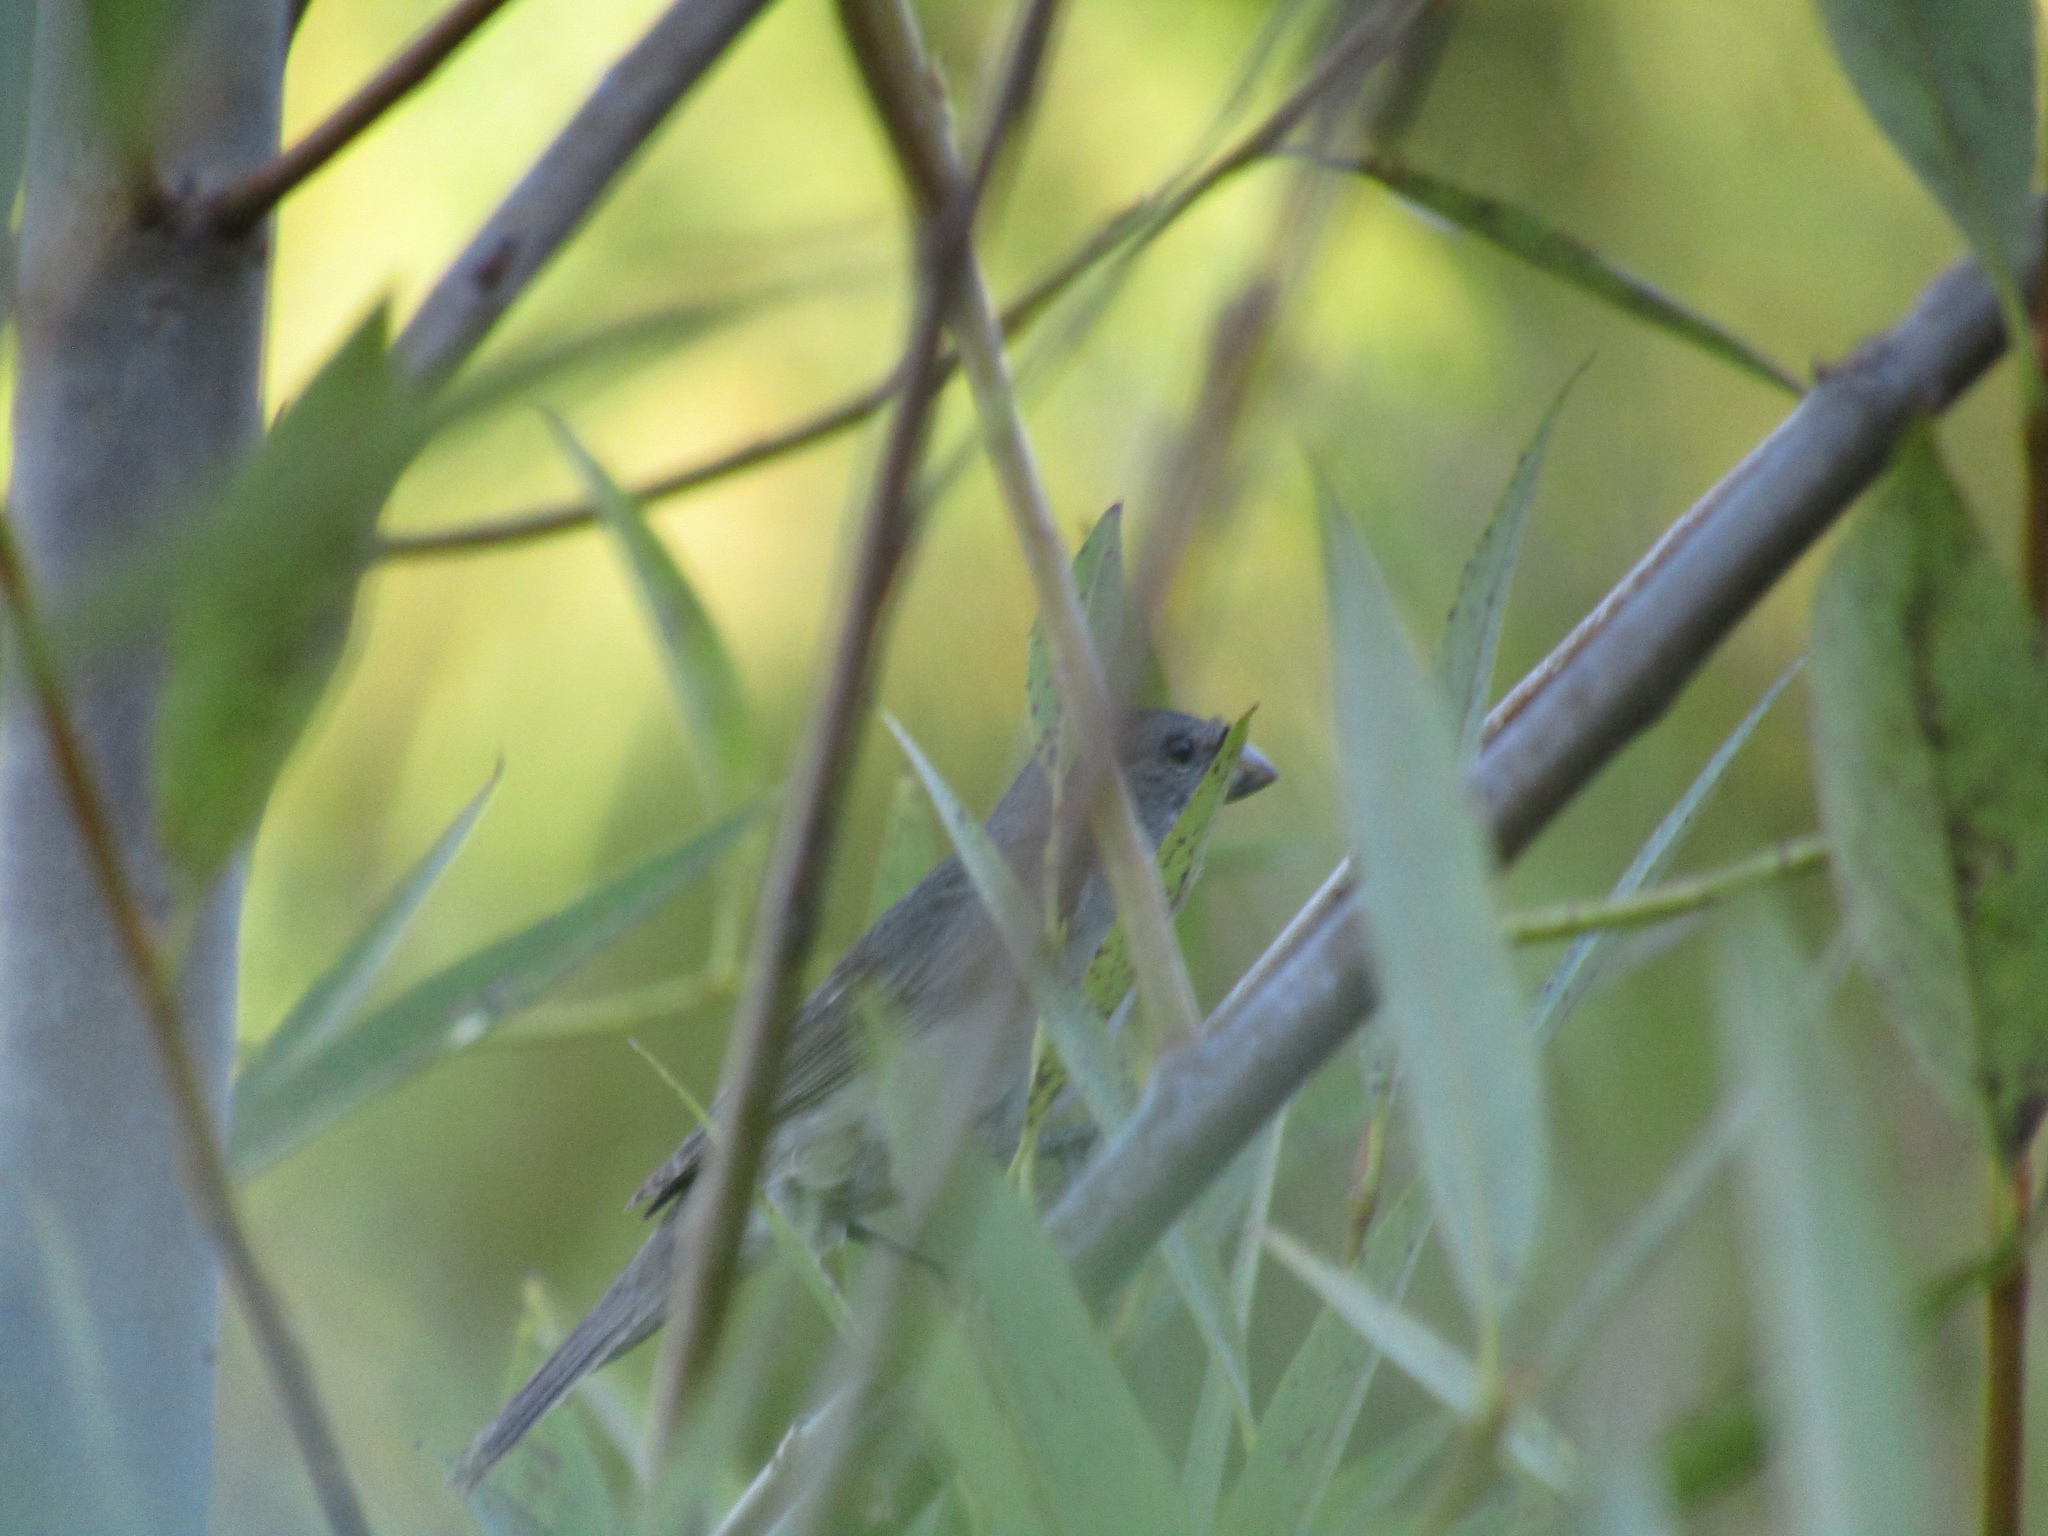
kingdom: Animalia
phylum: Chordata
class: Aves
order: Passeriformes
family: Thraupidae
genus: Sporophila
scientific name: Sporophila caerulescens
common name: Double-collared seedeater
